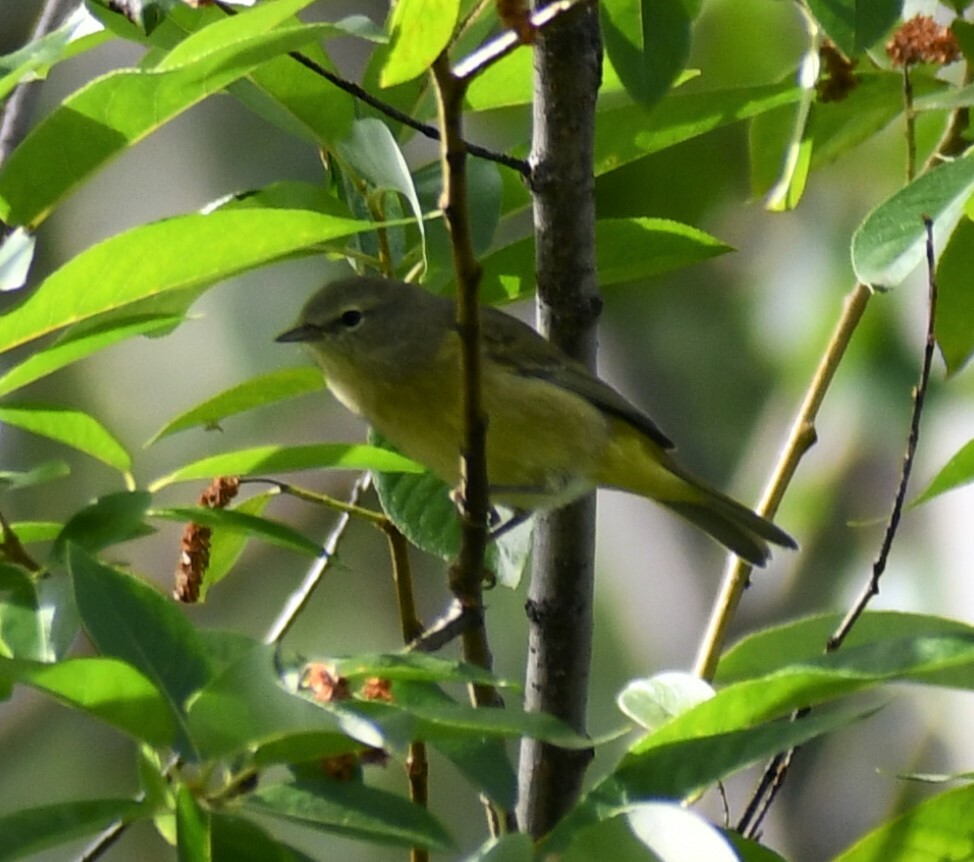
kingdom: Animalia
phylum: Chordata
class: Aves
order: Passeriformes
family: Parulidae
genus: Leiothlypis
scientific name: Leiothlypis celata
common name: Orange-crowned warbler
